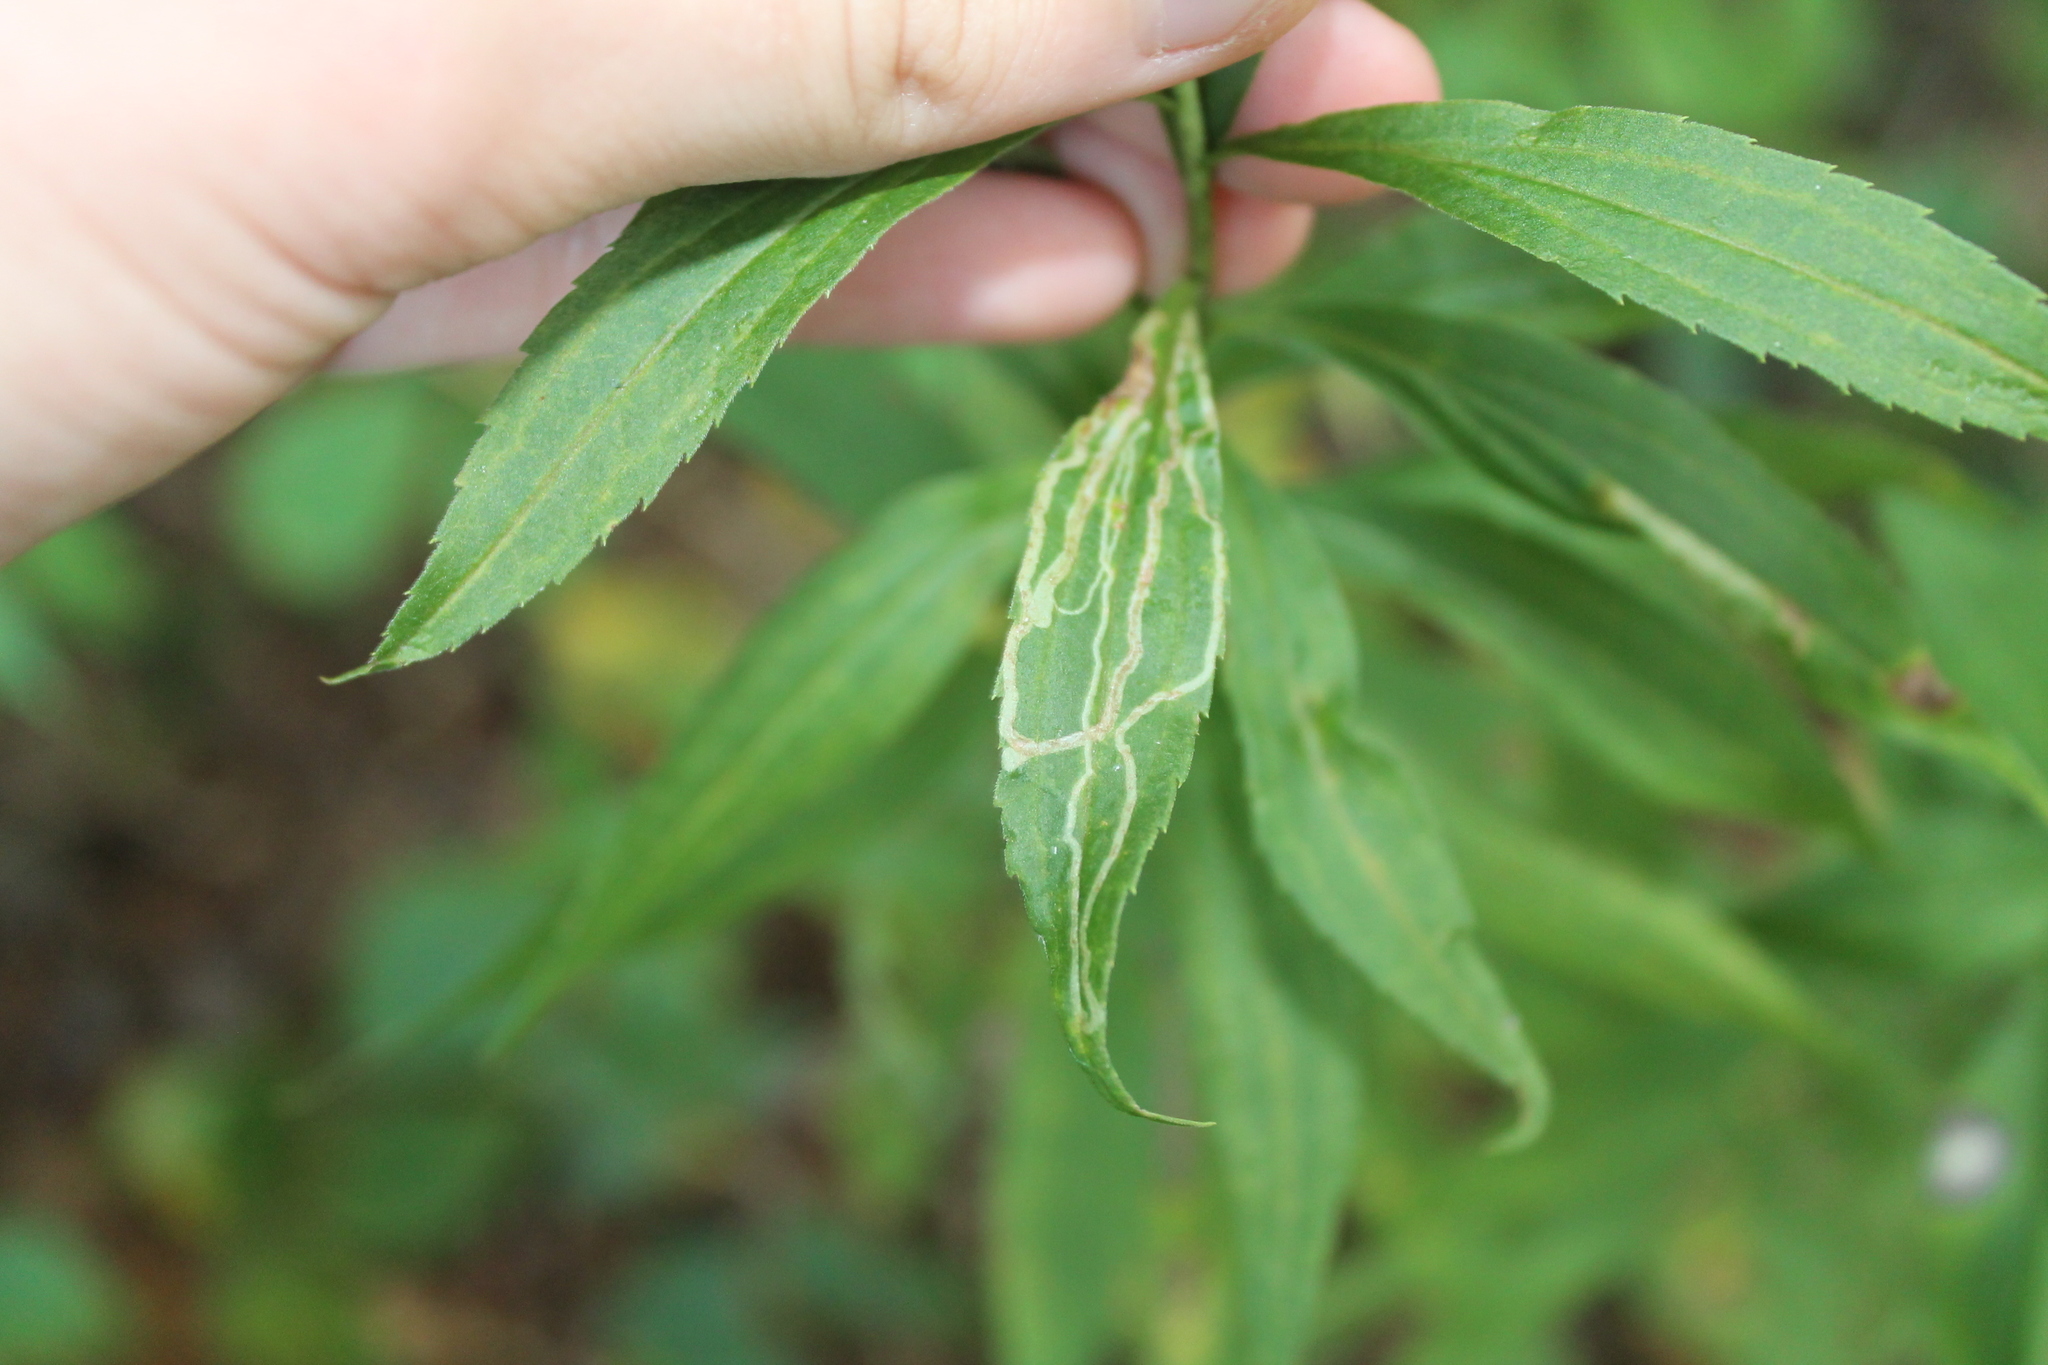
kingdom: Animalia
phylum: Arthropoda
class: Insecta
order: Diptera
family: Agromyzidae
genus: Ophiomyia
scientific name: Ophiomyia maura
